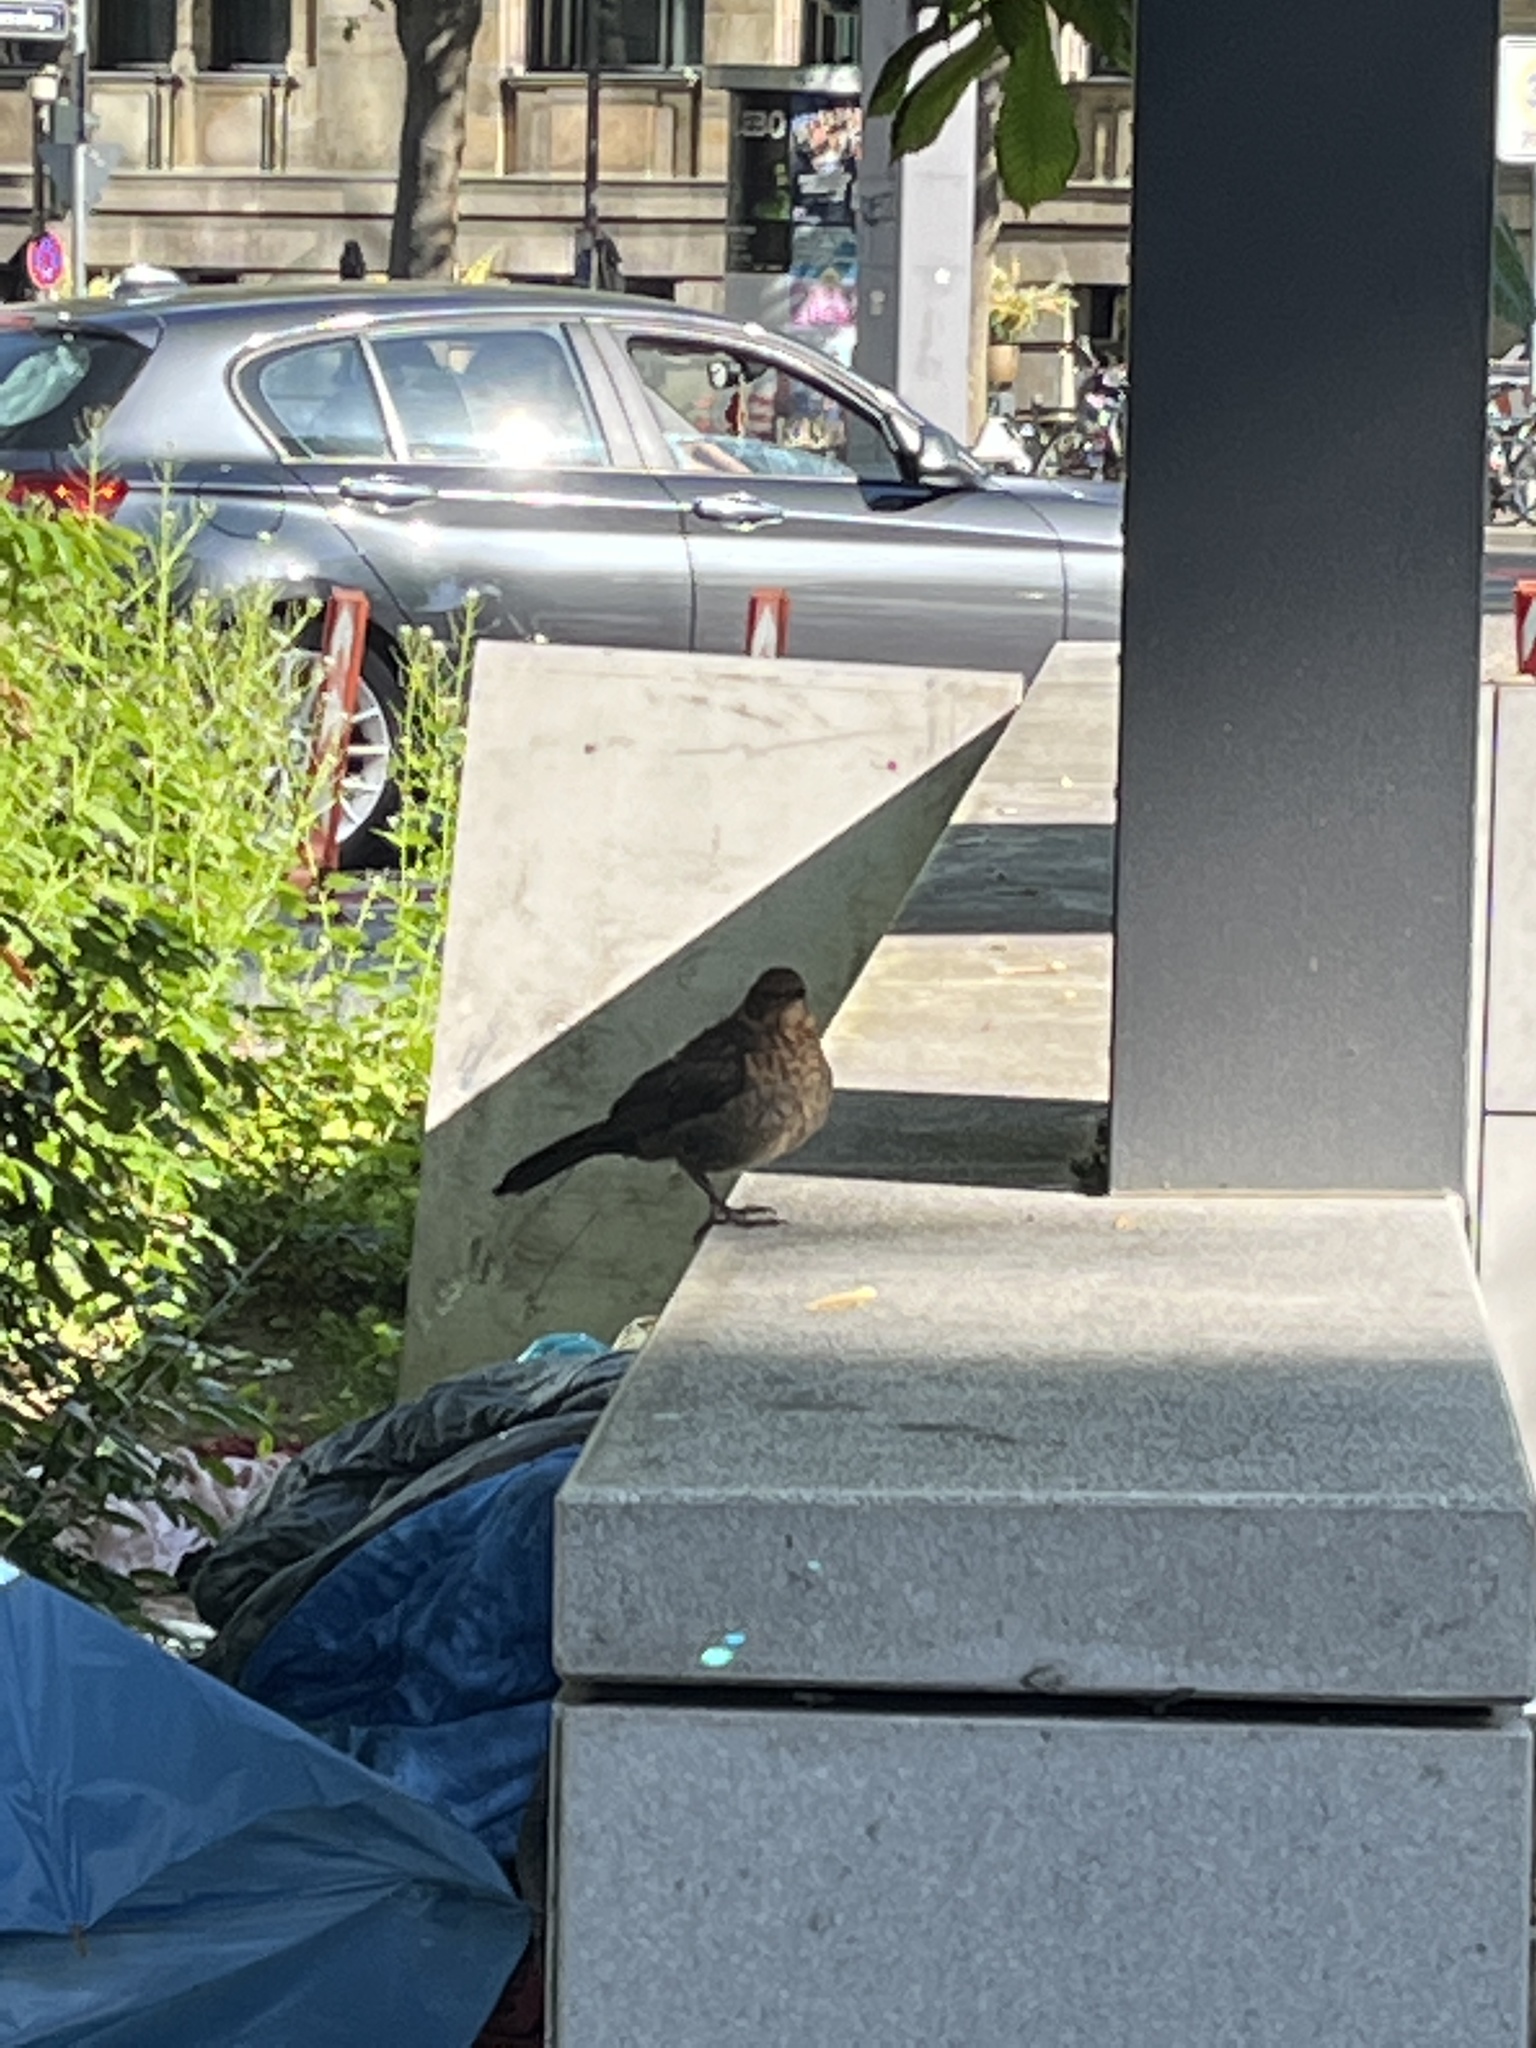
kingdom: Animalia
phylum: Chordata
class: Aves
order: Passeriformes
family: Turdidae
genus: Turdus
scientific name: Turdus merula
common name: Common blackbird
